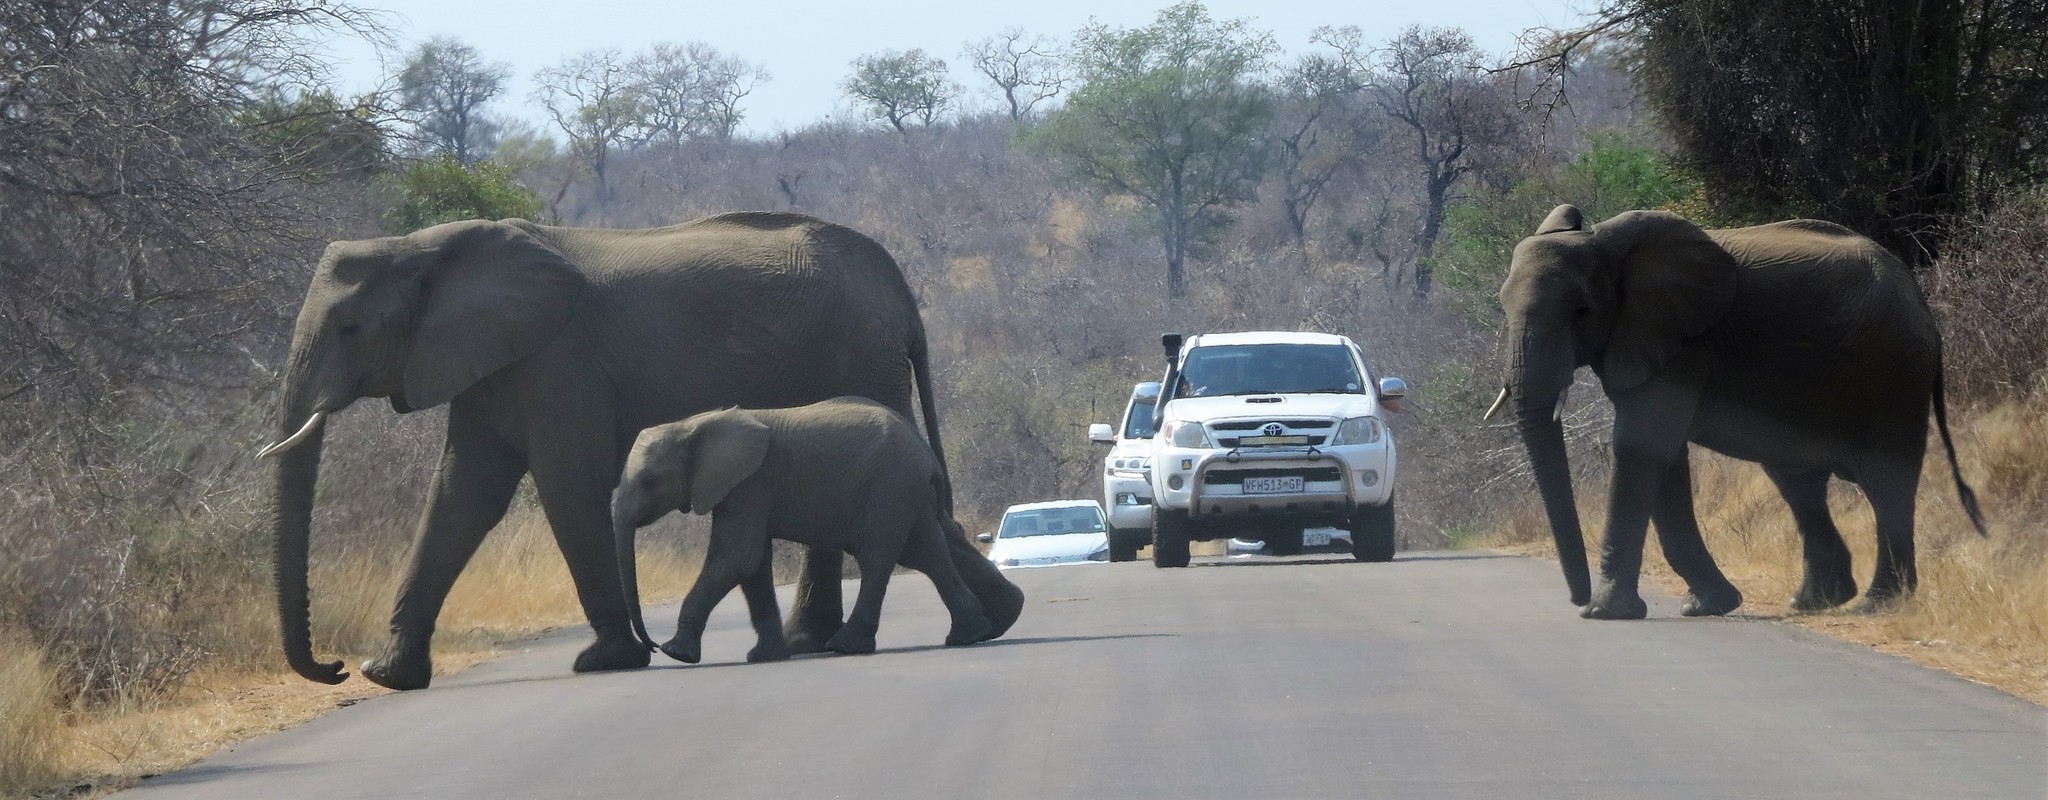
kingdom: Animalia
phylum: Chordata
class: Mammalia
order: Proboscidea
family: Elephantidae
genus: Loxodonta
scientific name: Loxodonta africana
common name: African elephant
